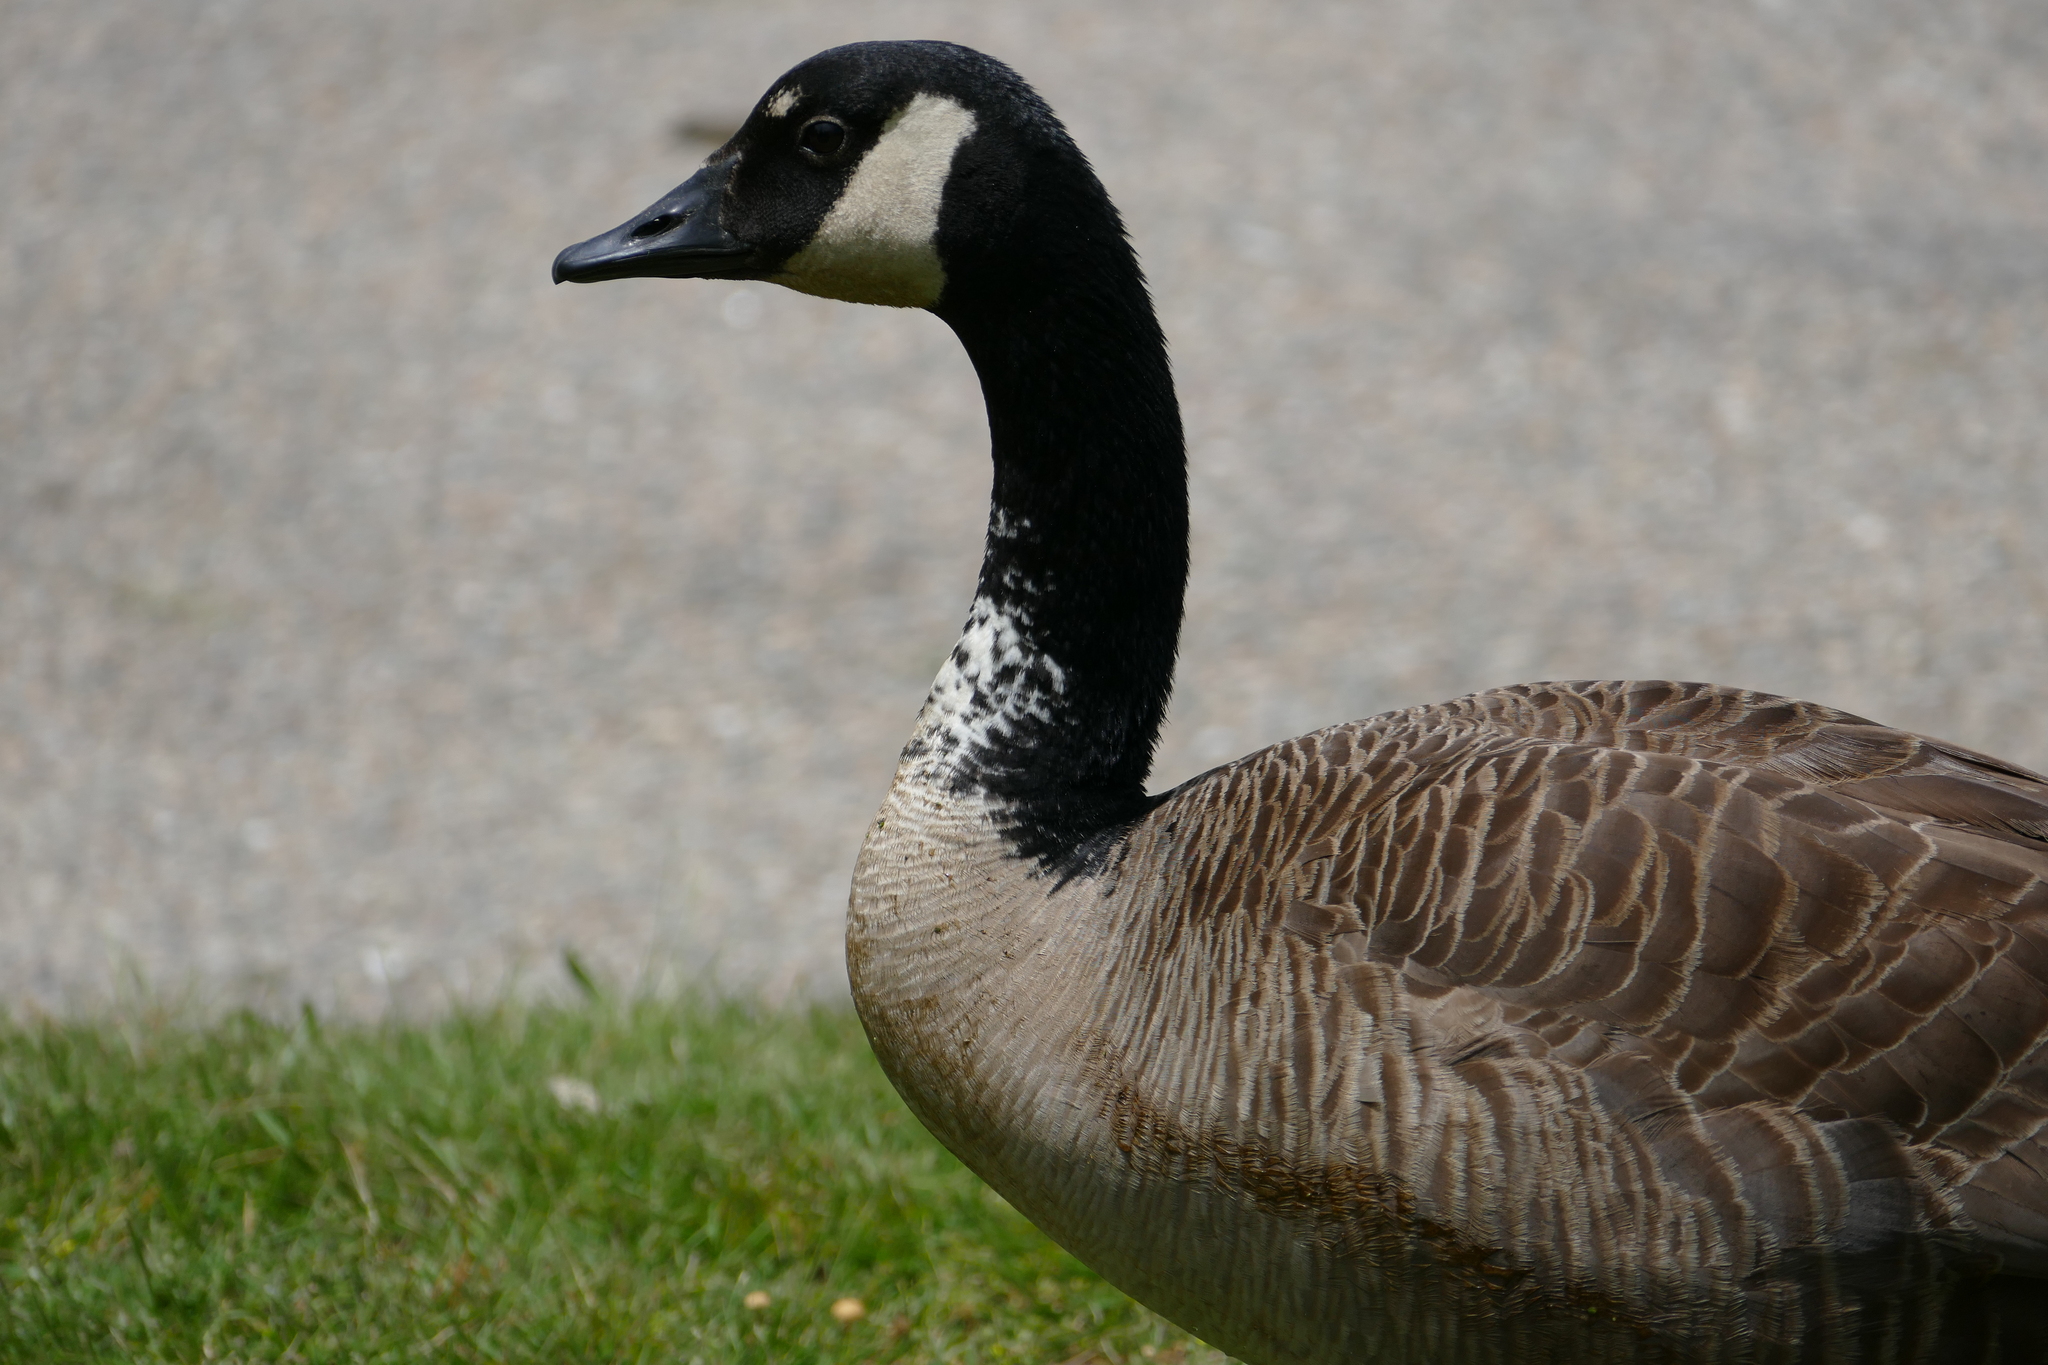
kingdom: Animalia
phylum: Chordata
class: Aves
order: Anseriformes
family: Anatidae
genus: Branta
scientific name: Branta canadensis
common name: Canada goose
